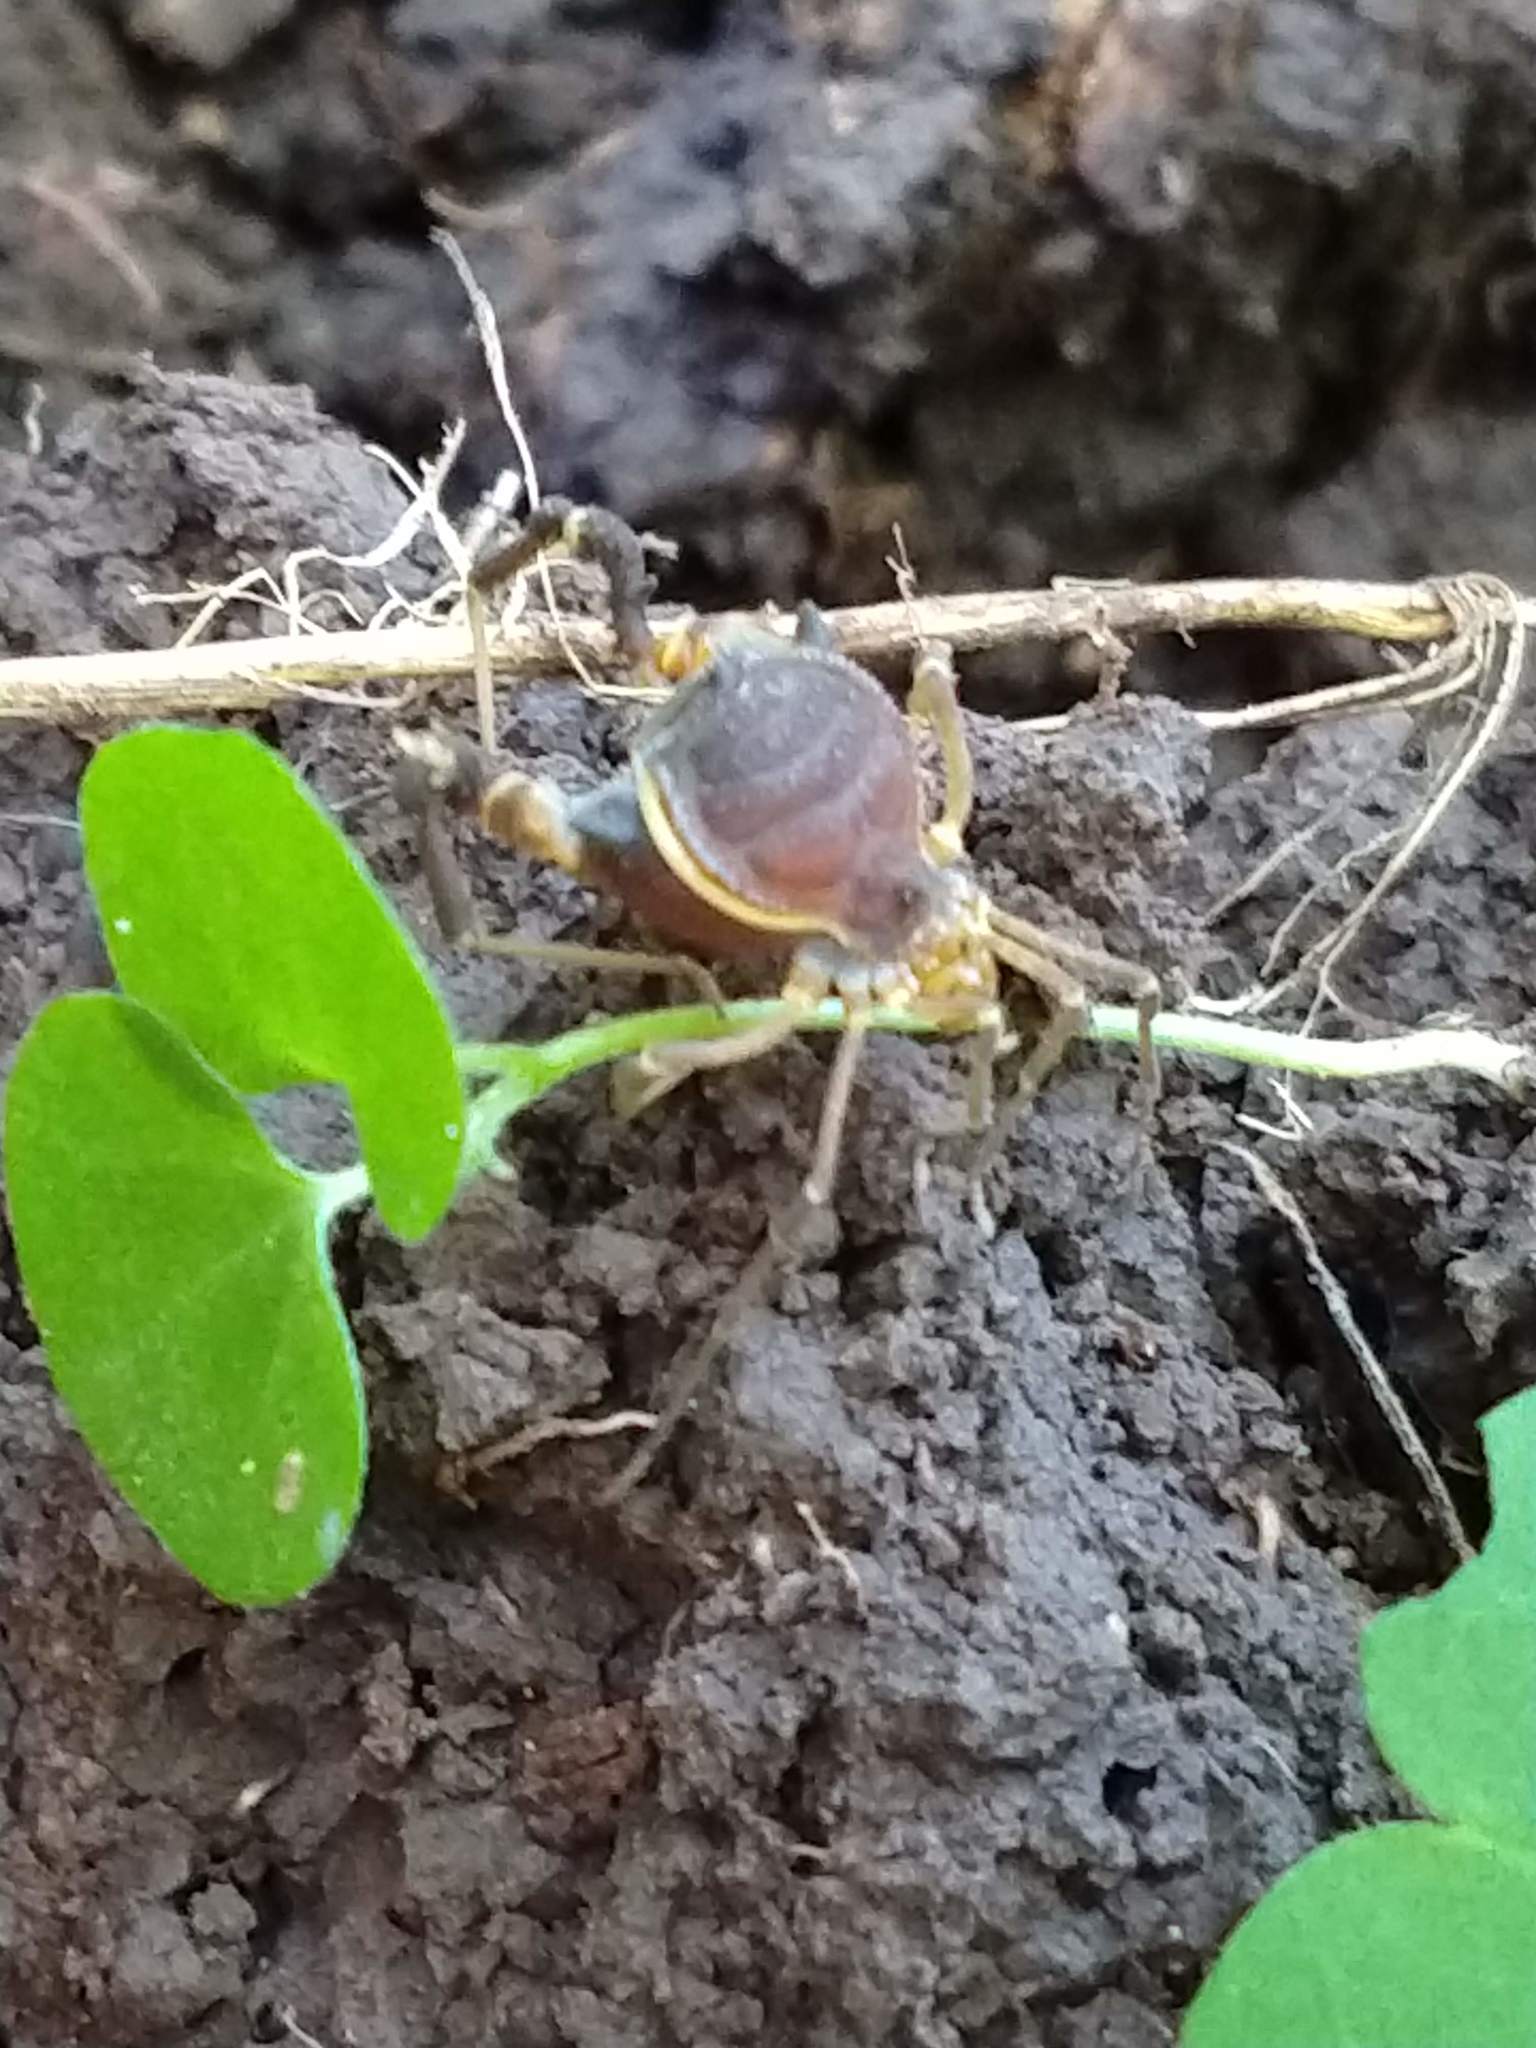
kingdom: Animalia
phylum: Arthropoda
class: Arachnida
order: Opiliones
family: Gonyleptidae
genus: Acanthopachylus
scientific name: Acanthopachylus robustus
